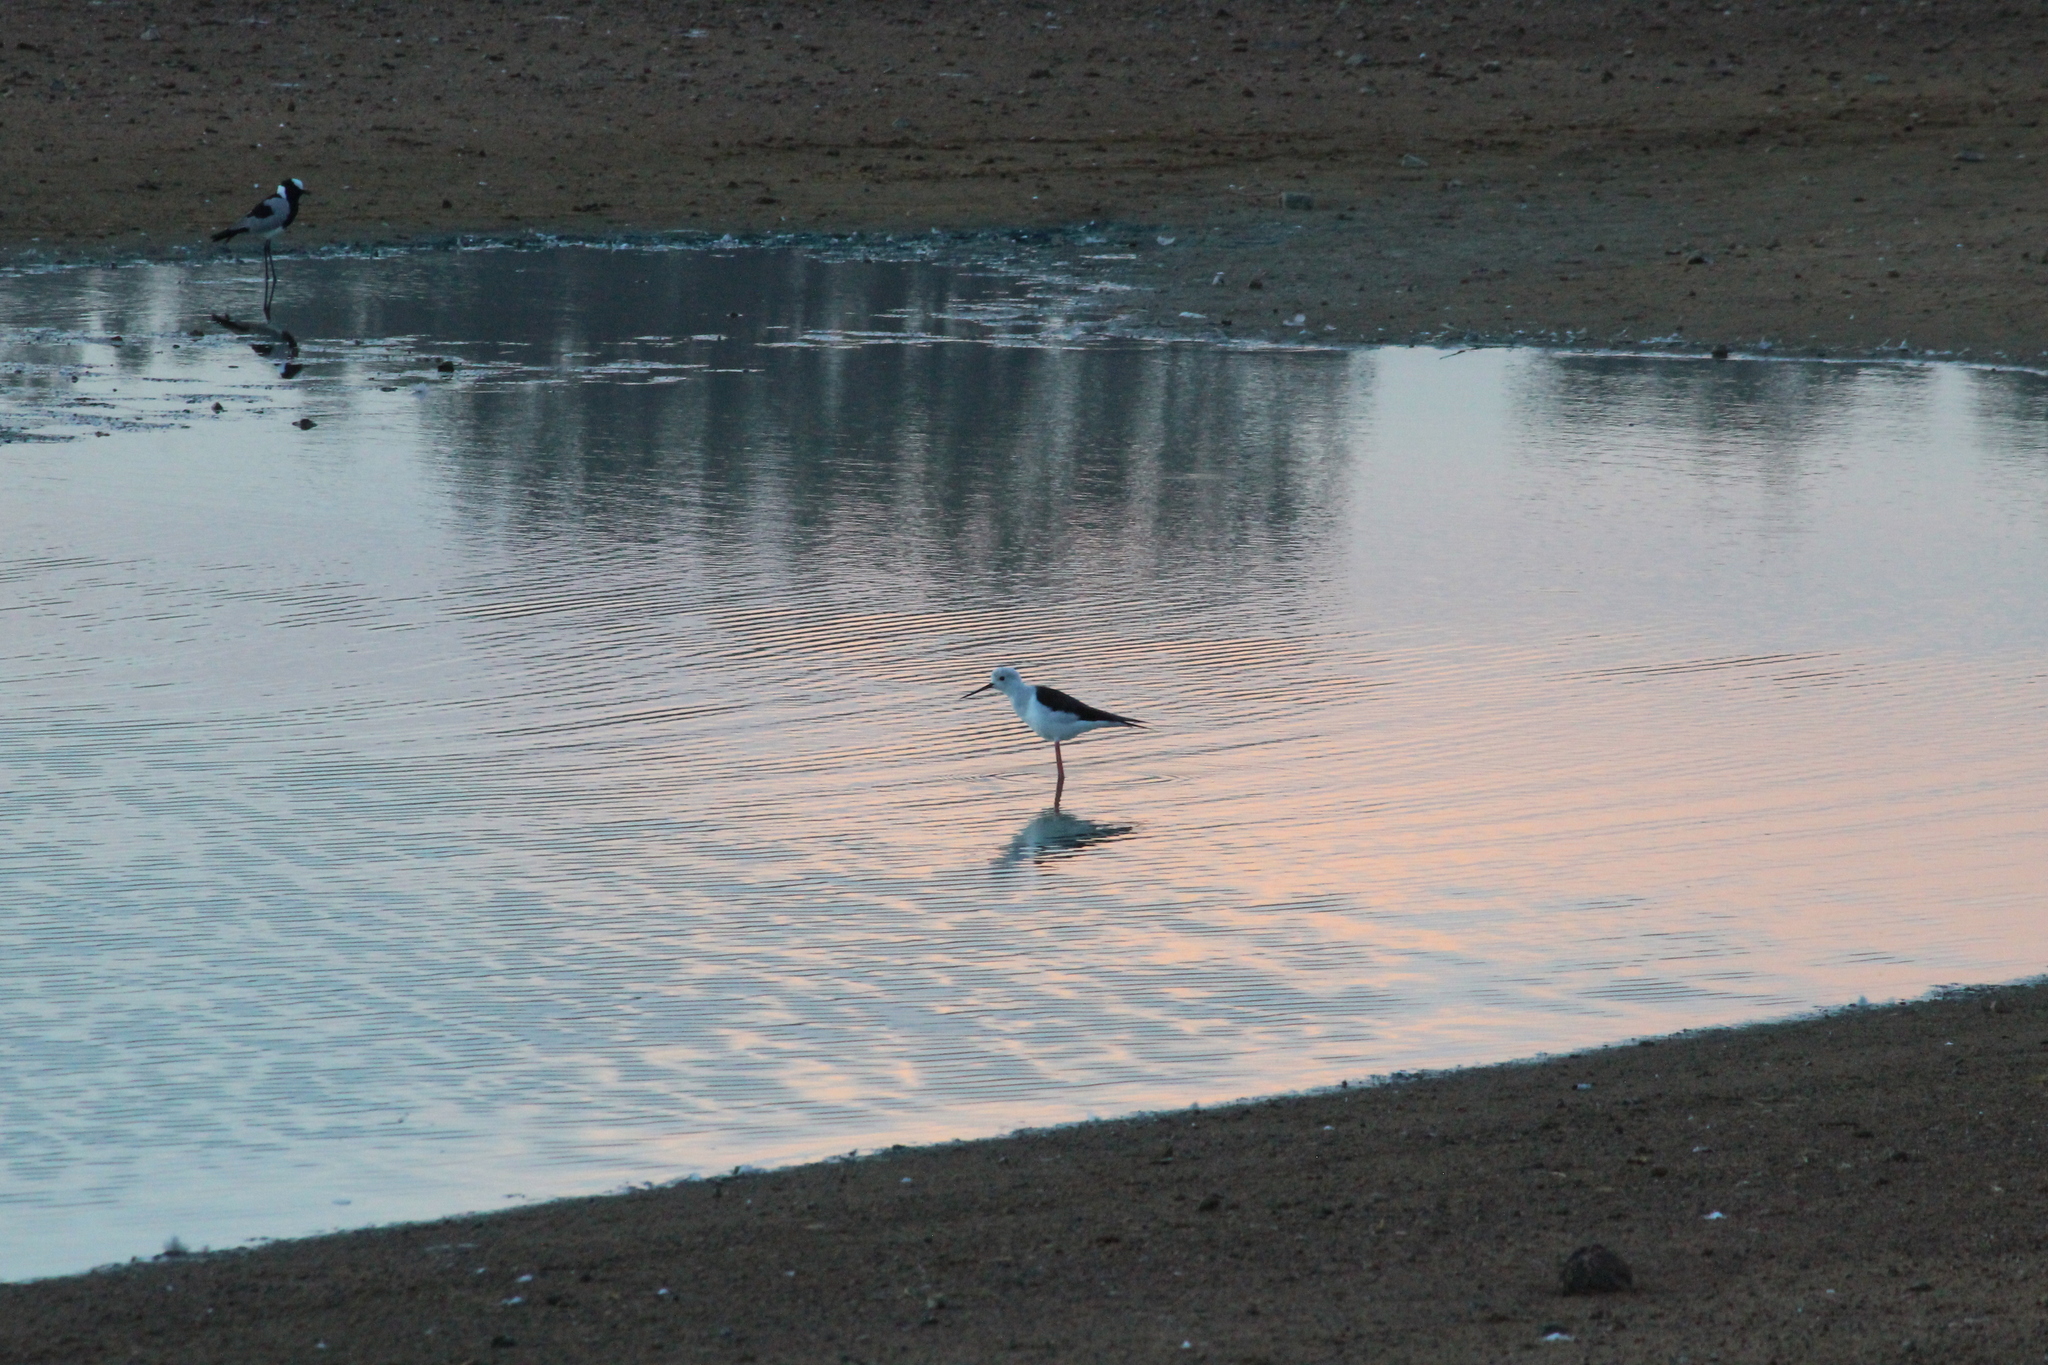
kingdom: Animalia
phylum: Chordata
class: Aves
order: Charadriiformes
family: Recurvirostridae
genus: Himantopus
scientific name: Himantopus himantopus
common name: Black-winged stilt
